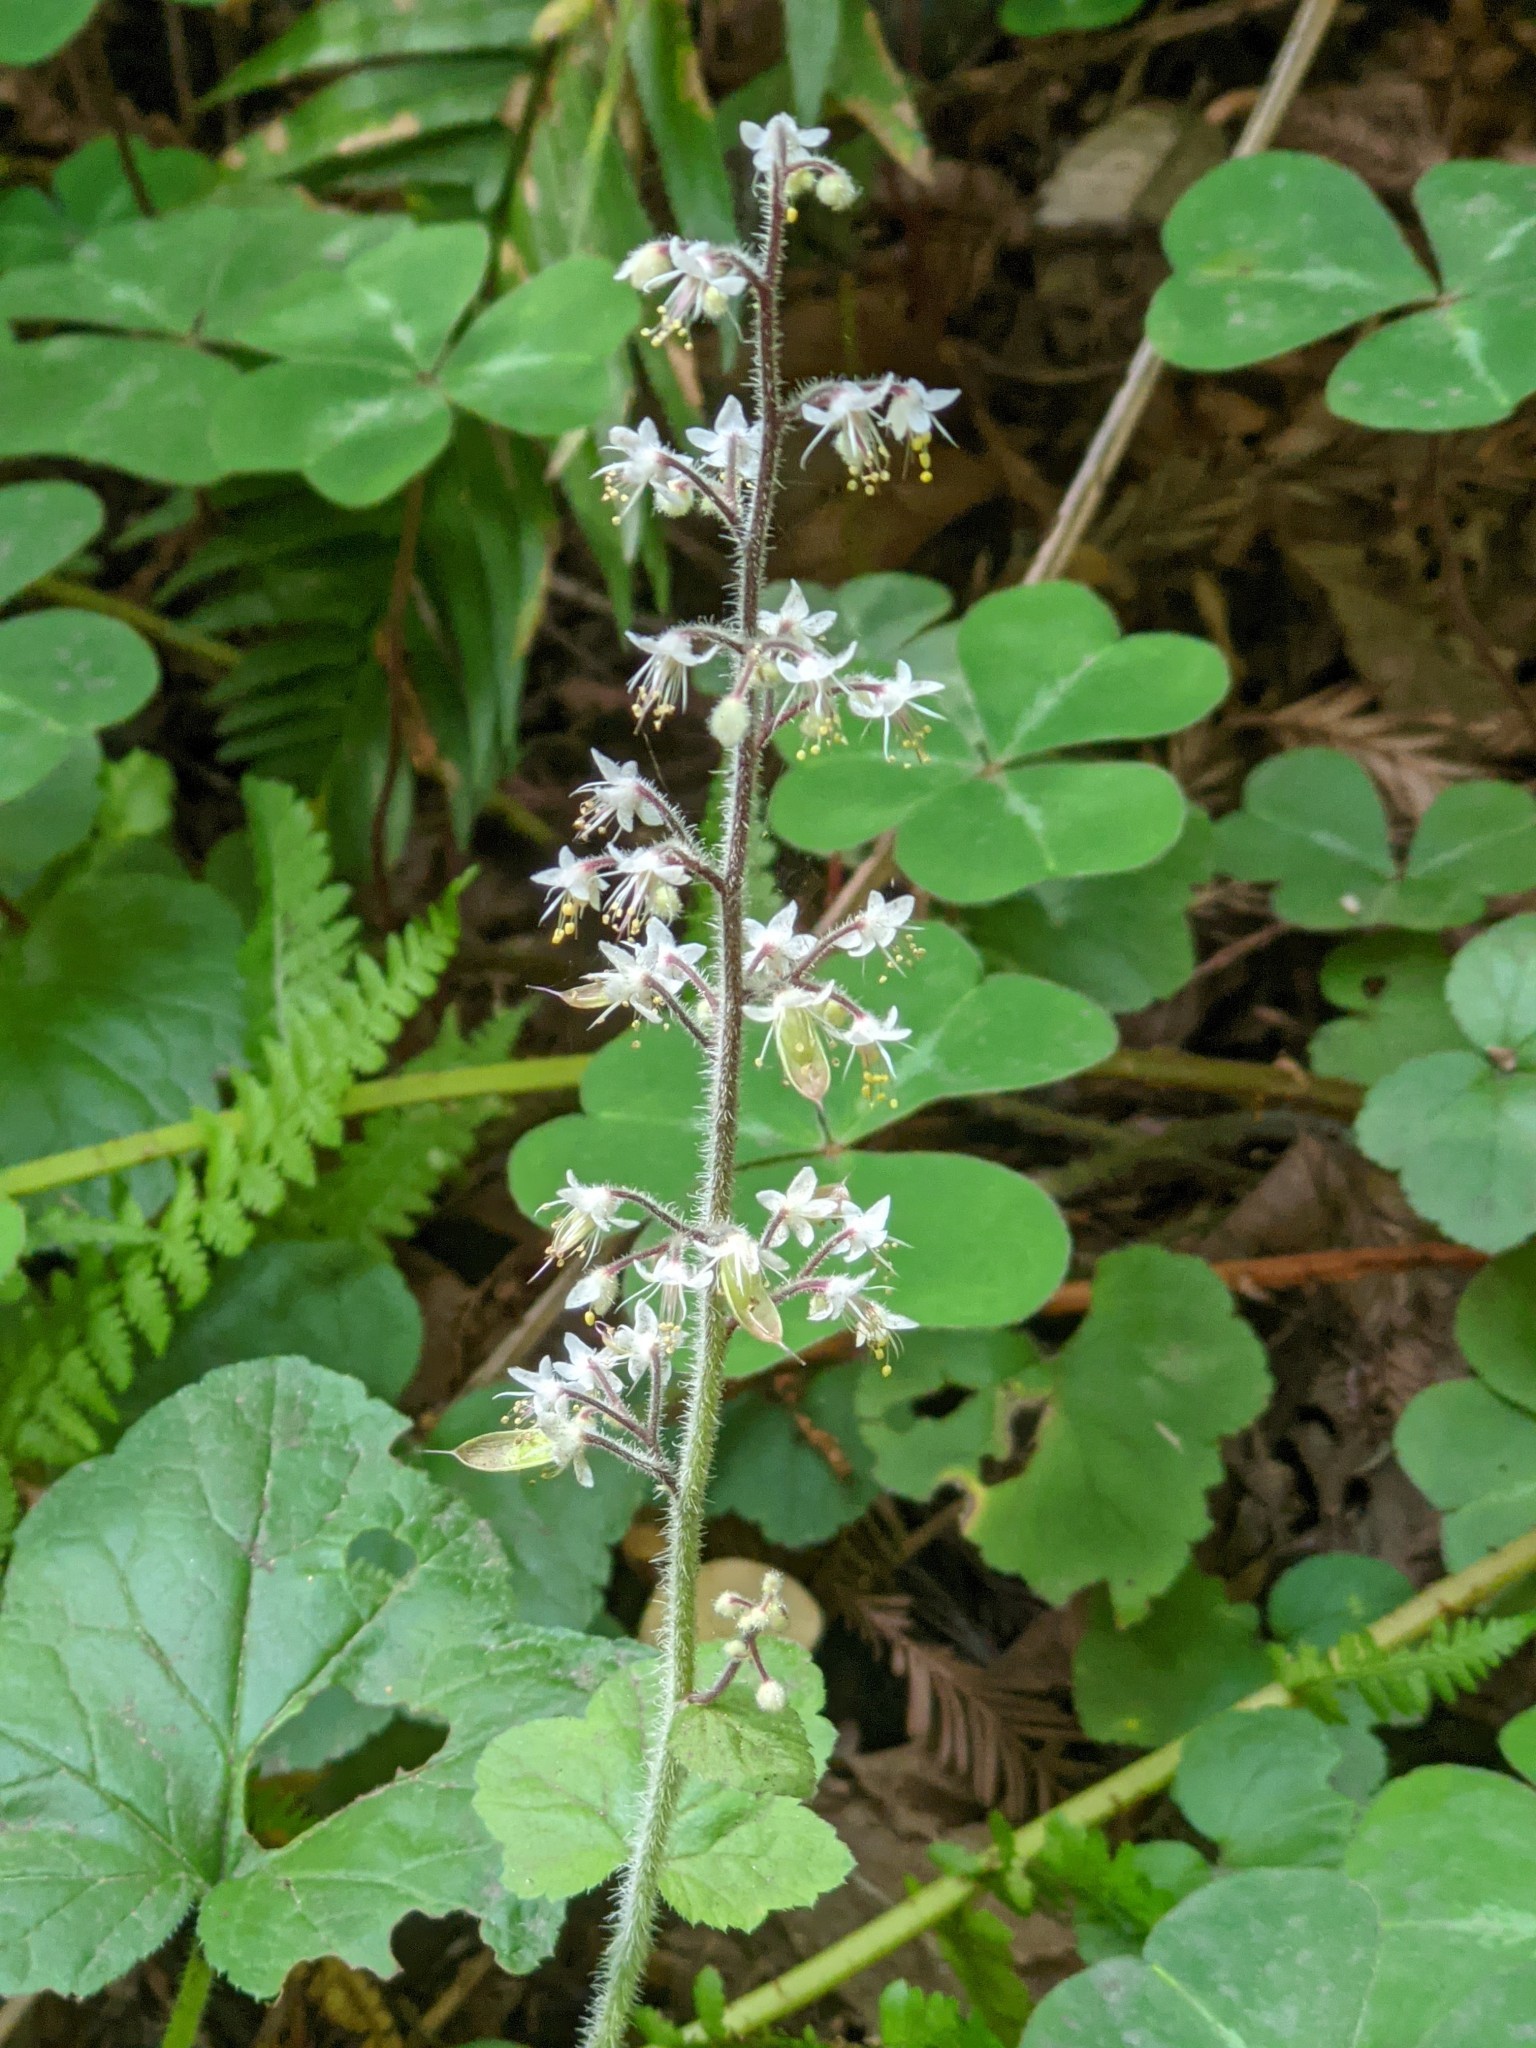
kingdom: Plantae
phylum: Tracheophyta
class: Magnoliopsida
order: Saxifragales
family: Saxifragaceae
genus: Tiarella
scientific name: Tiarella trifoliata
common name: Sugar-scoop
